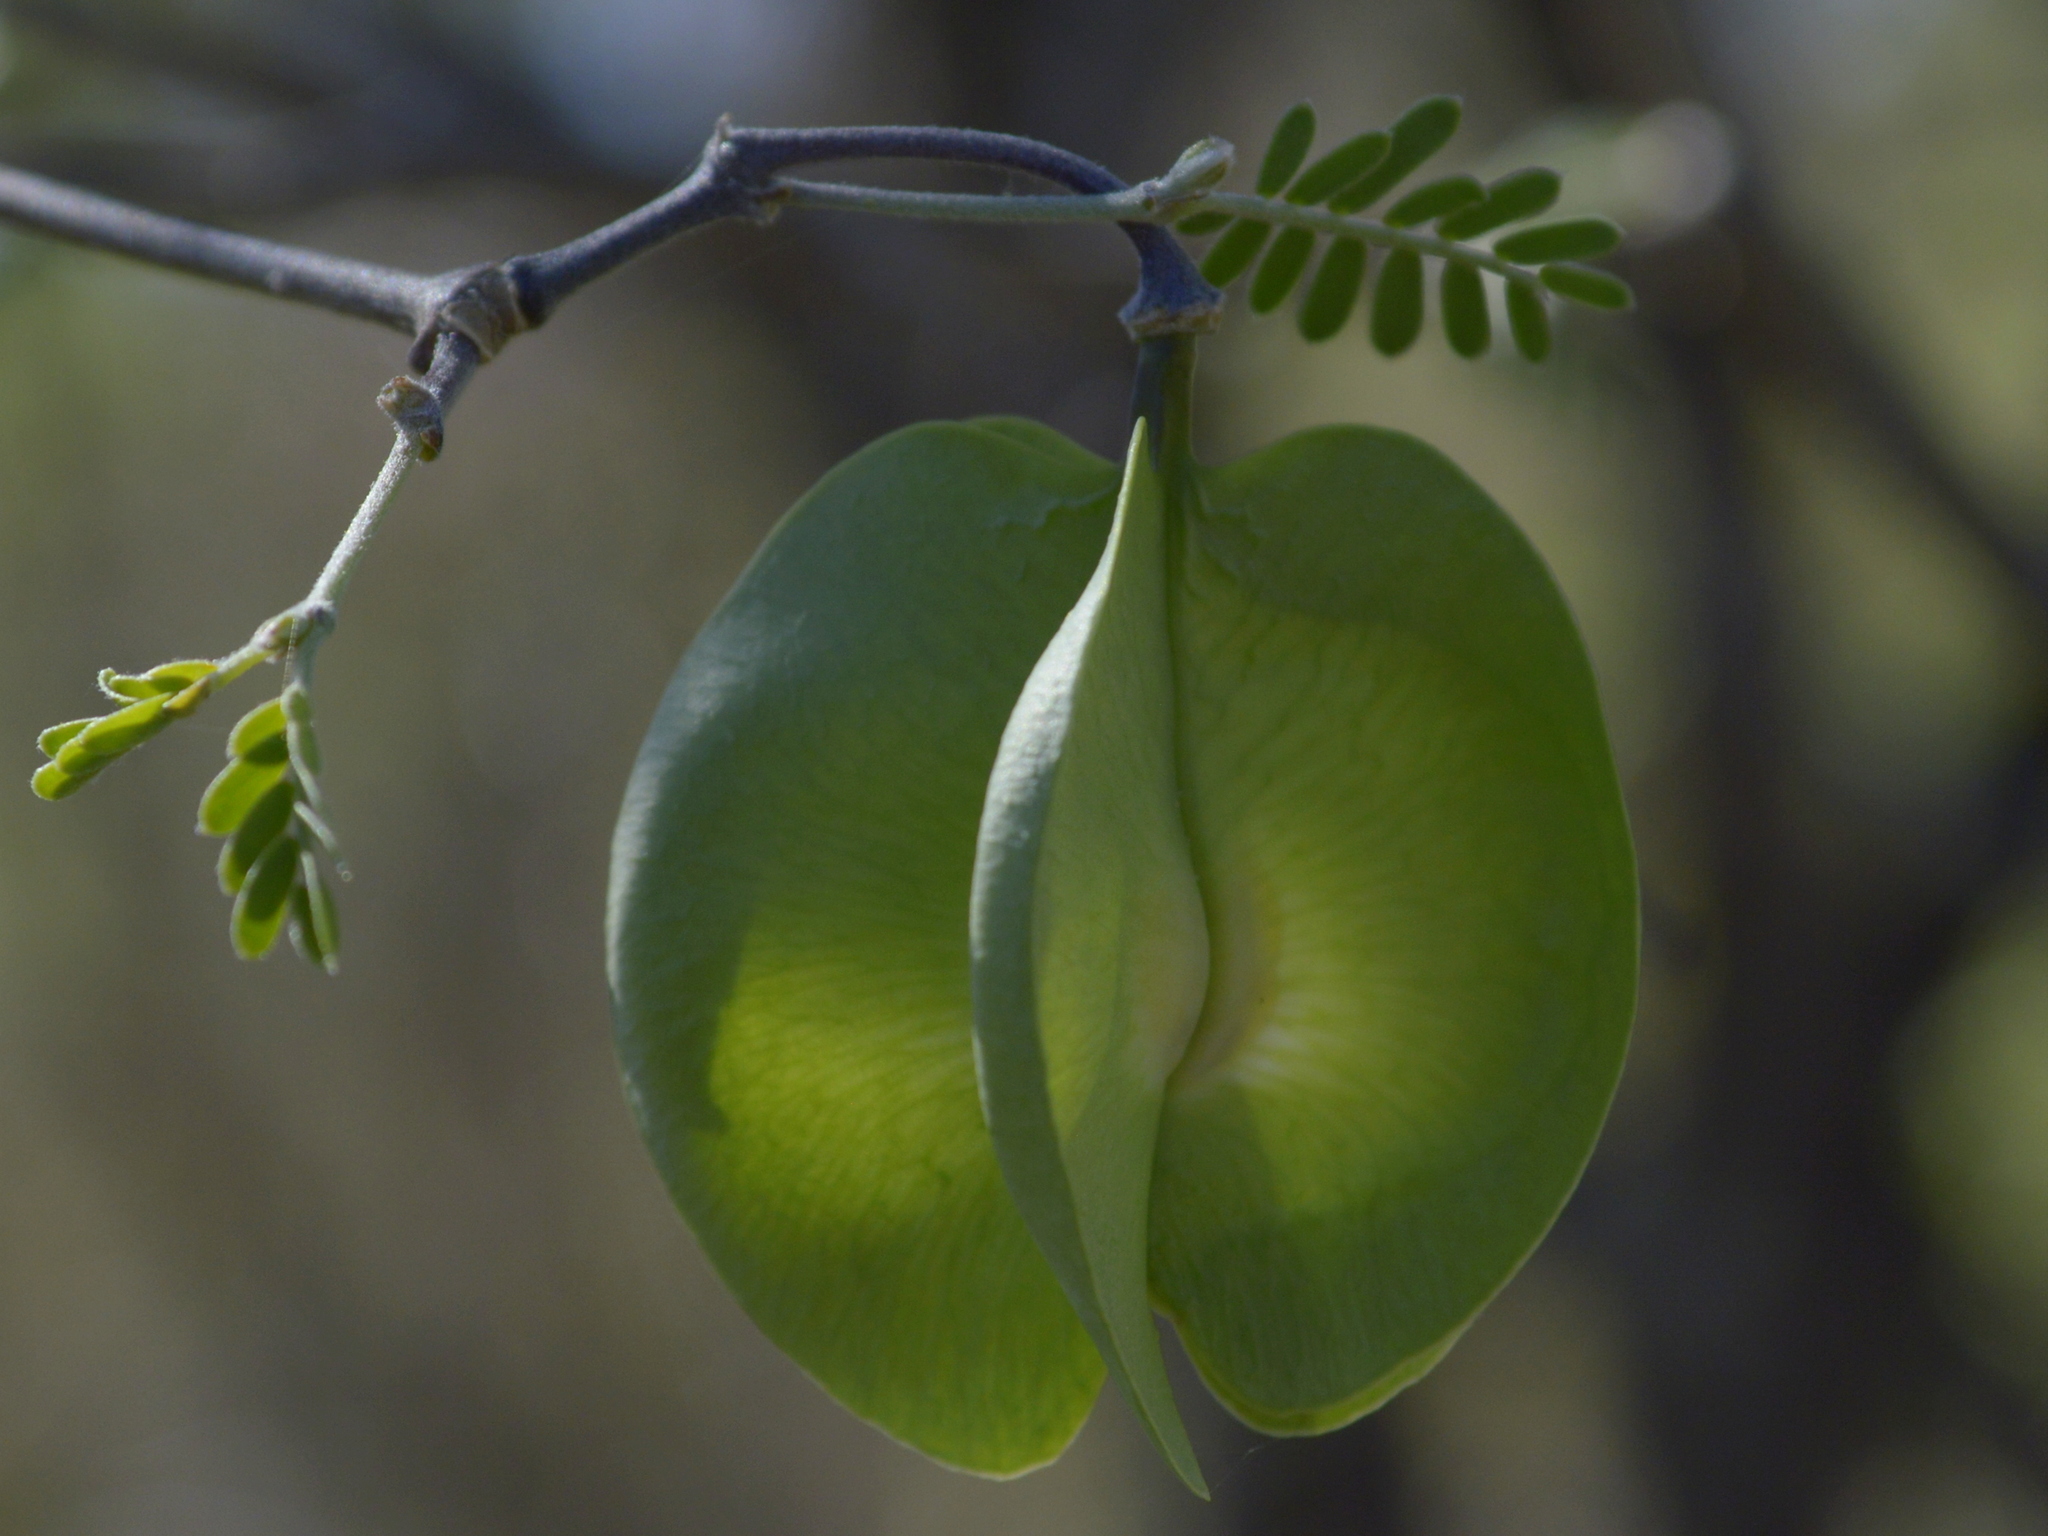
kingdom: Plantae
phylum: Tracheophyta
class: Magnoliopsida
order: Zygophyllales
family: Zygophyllaceae
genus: Gonopterodendron
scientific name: Gonopterodendron bonariense
